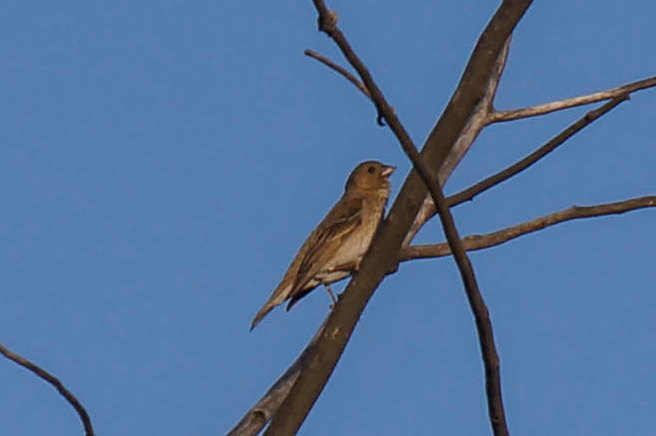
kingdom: Animalia
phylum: Chordata
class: Aves
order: Passeriformes
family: Fringillidae
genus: Carpodacus
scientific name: Carpodacus erythrinus
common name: Common rosefinch
